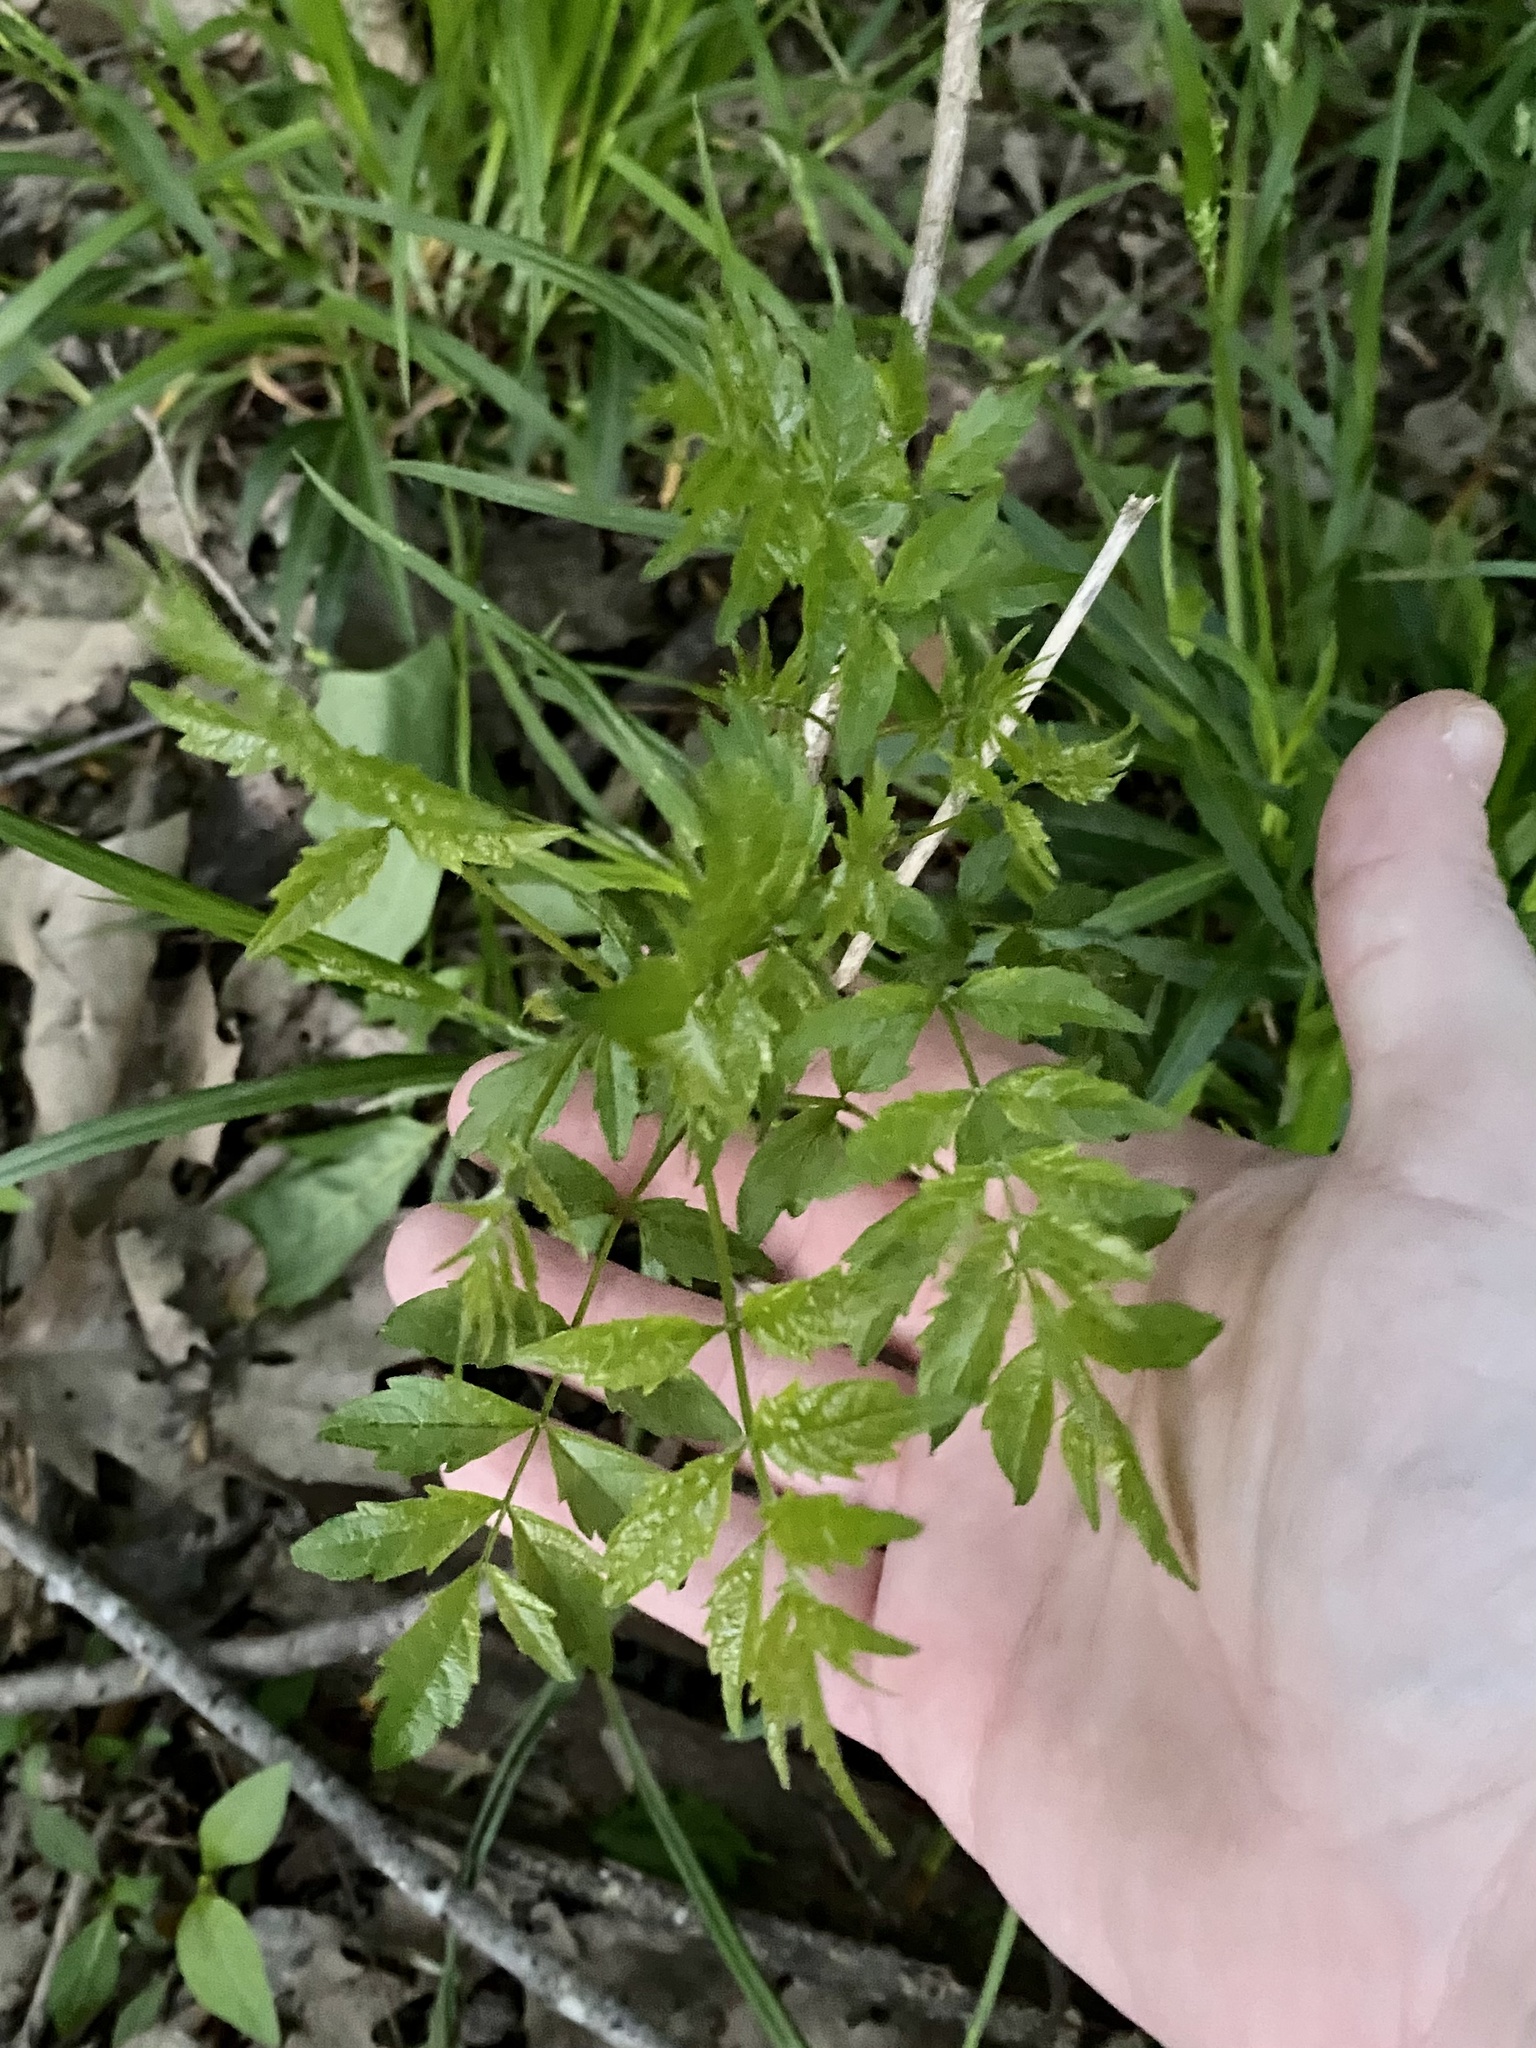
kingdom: Plantae
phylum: Tracheophyta
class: Magnoliopsida
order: Lamiales
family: Bignoniaceae
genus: Campsis
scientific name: Campsis radicans
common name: Trumpet-creeper
